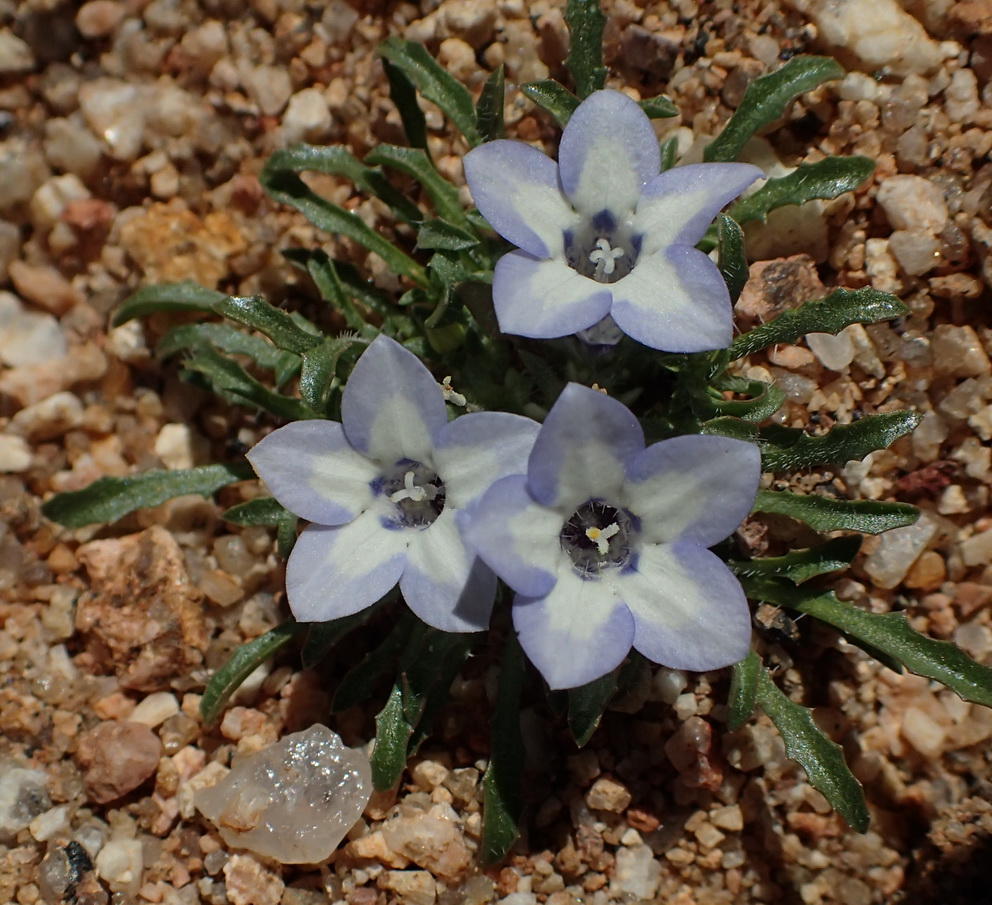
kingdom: Plantae
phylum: Tracheophyta
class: Magnoliopsida
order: Asterales
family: Campanulaceae
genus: Wahlenbergia
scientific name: Wahlenbergia acaulis
